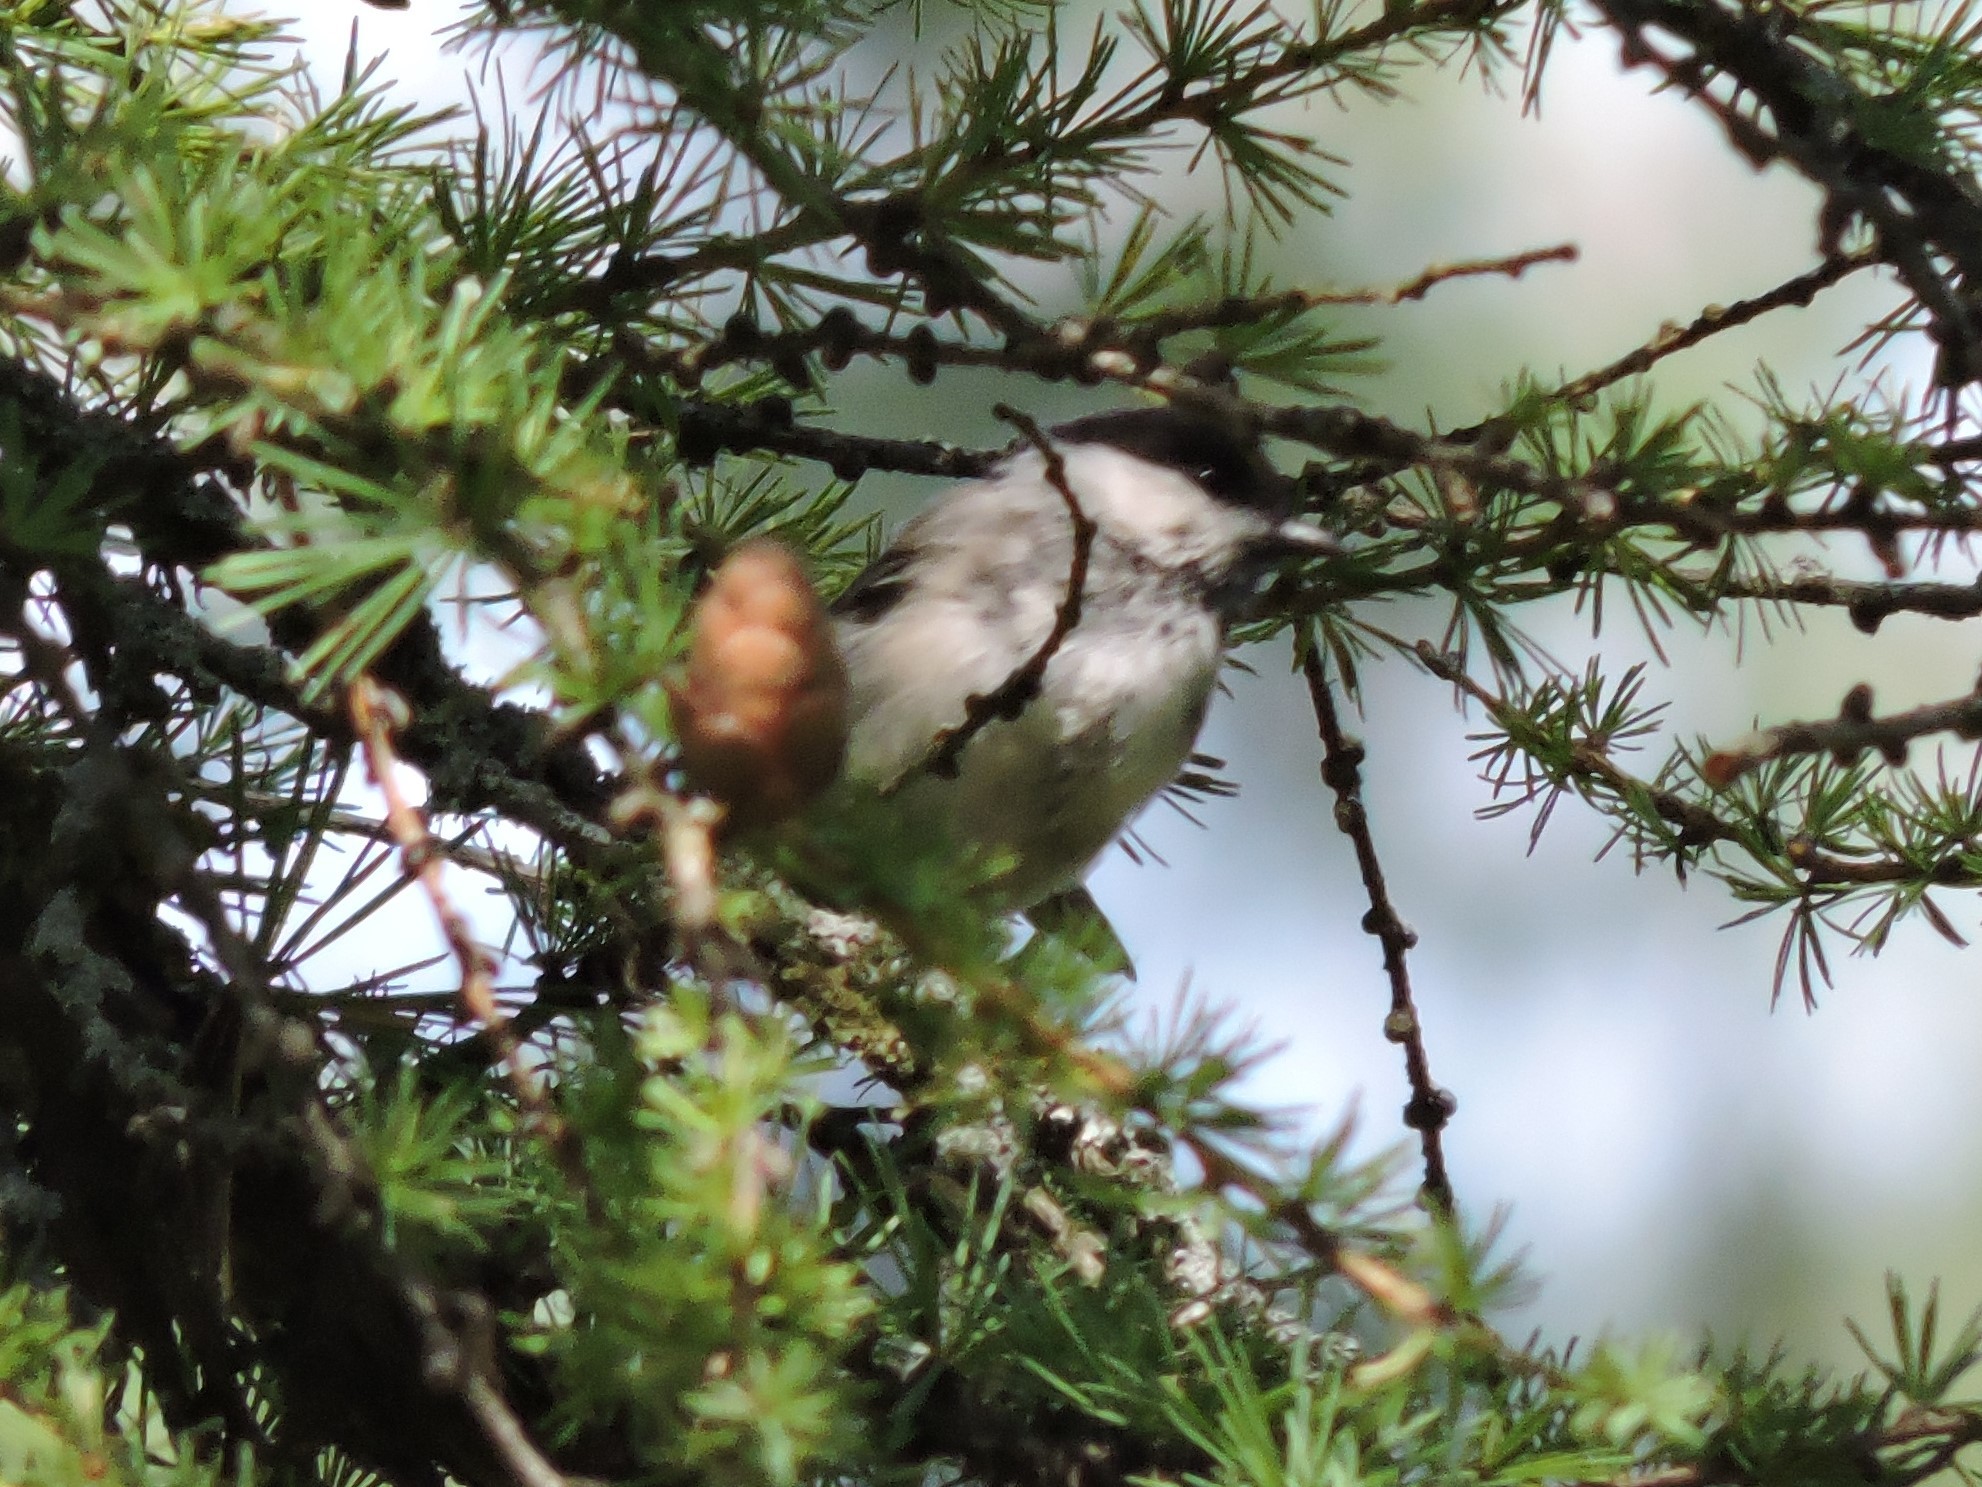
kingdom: Animalia
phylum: Chordata
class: Aves
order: Passeriformes
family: Paridae
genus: Poecile
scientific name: Poecile montanus
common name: Willow tit
